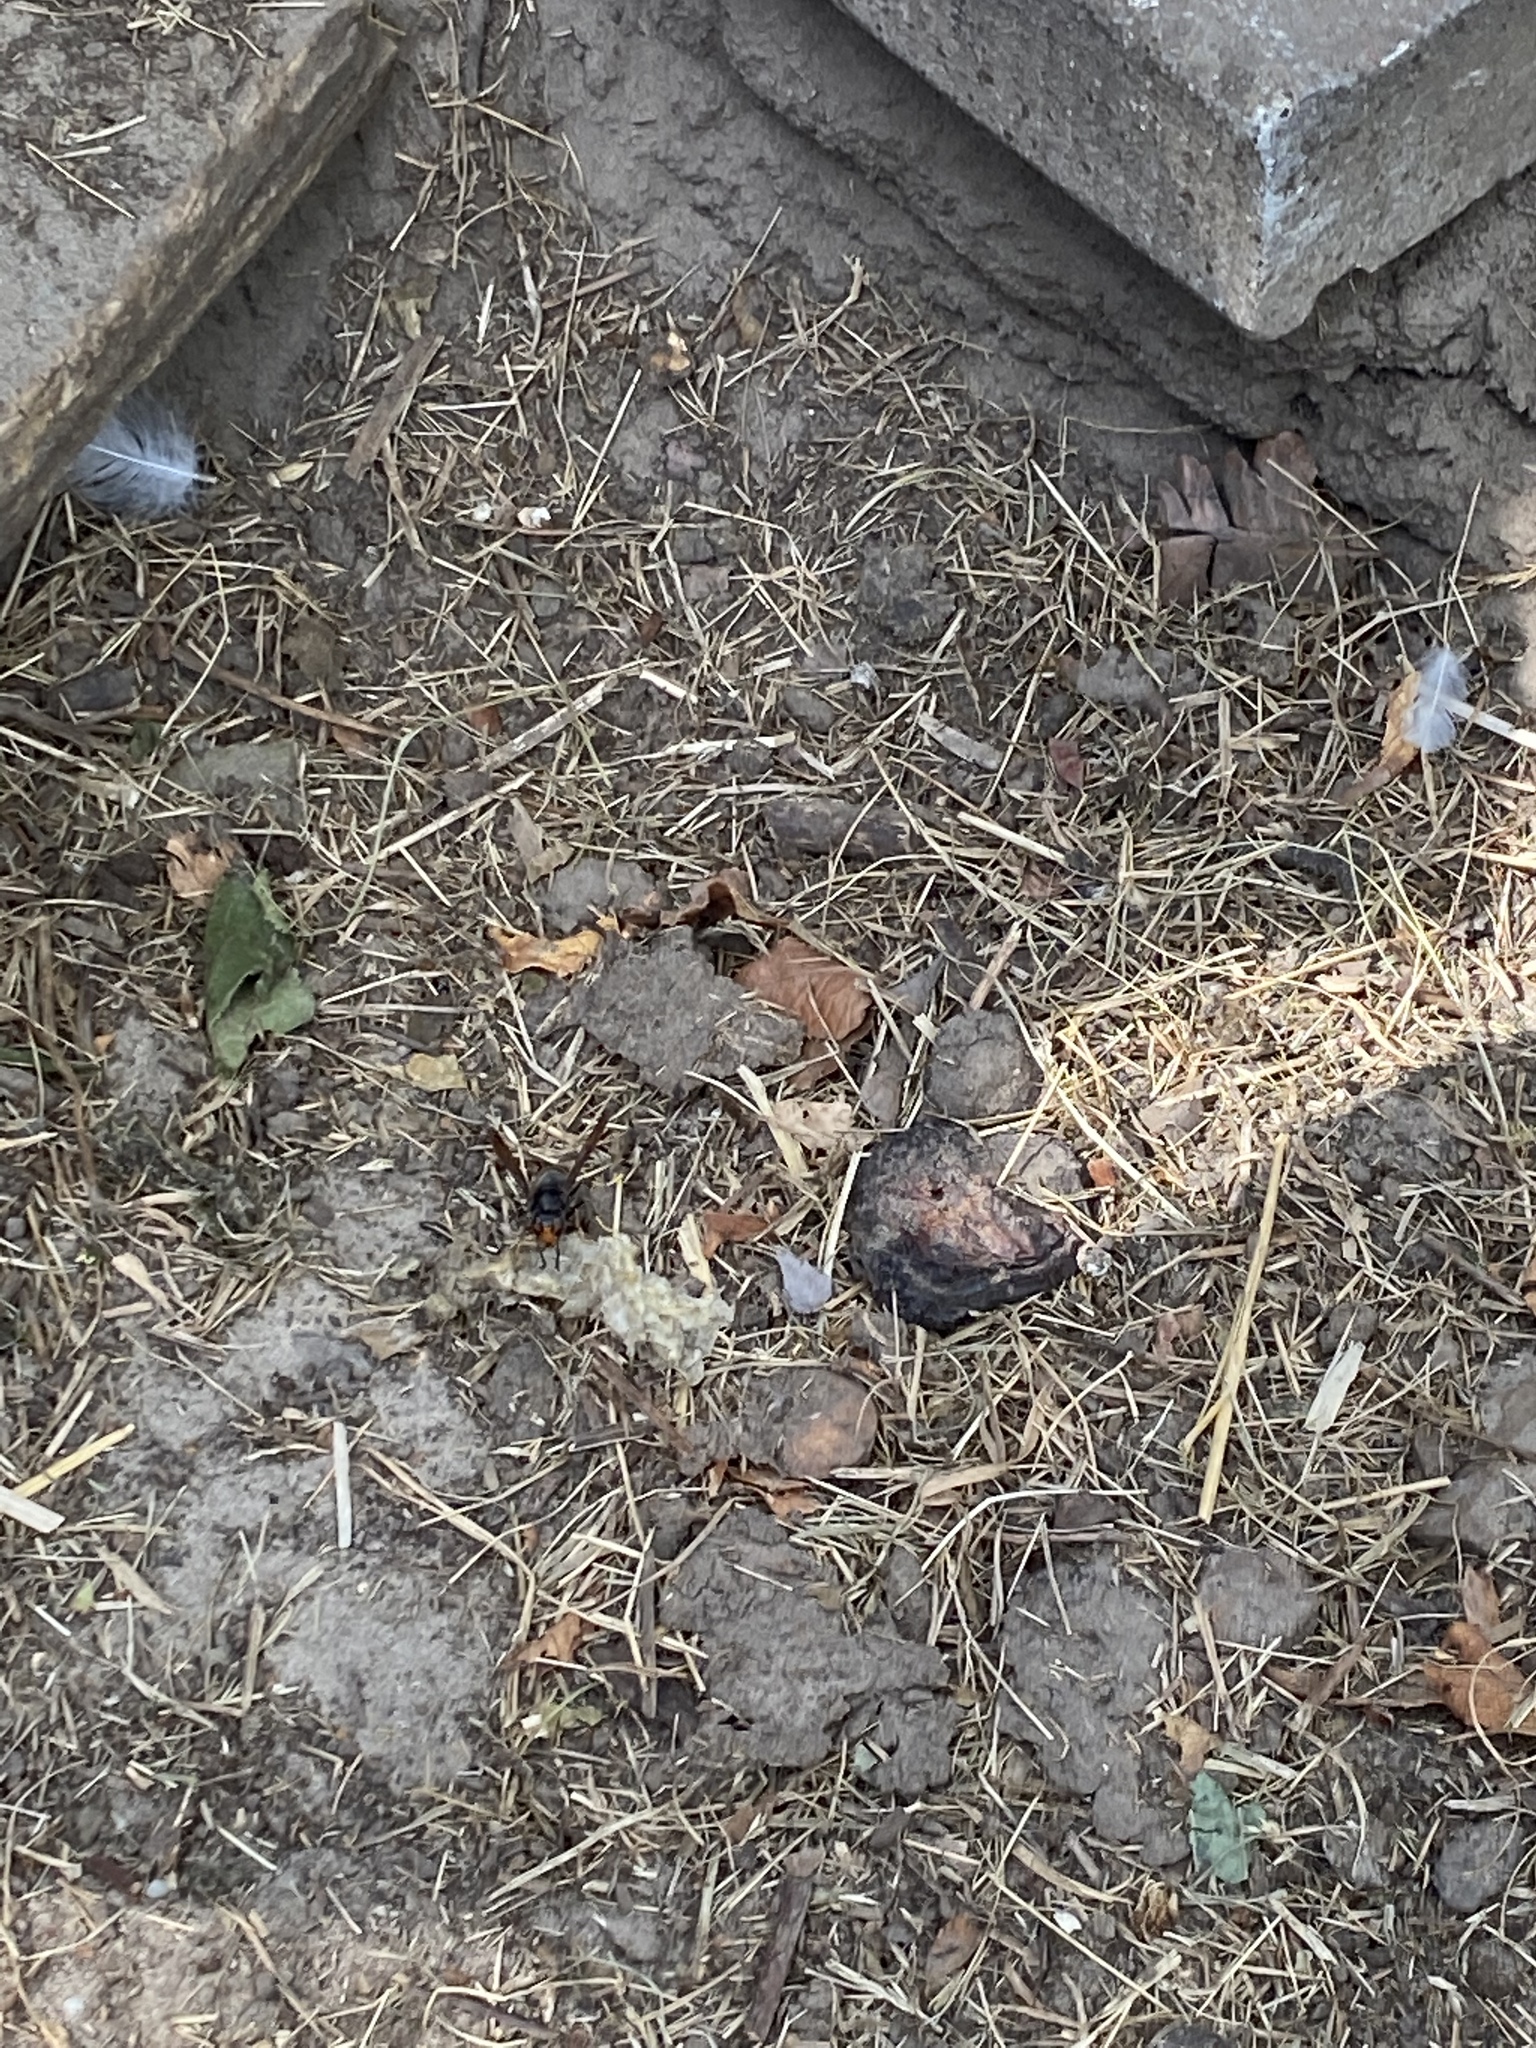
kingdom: Animalia
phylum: Arthropoda
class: Insecta
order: Hymenoptera
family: Vespidae
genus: Vespa
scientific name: Vespa velutina
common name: Asian hornet
